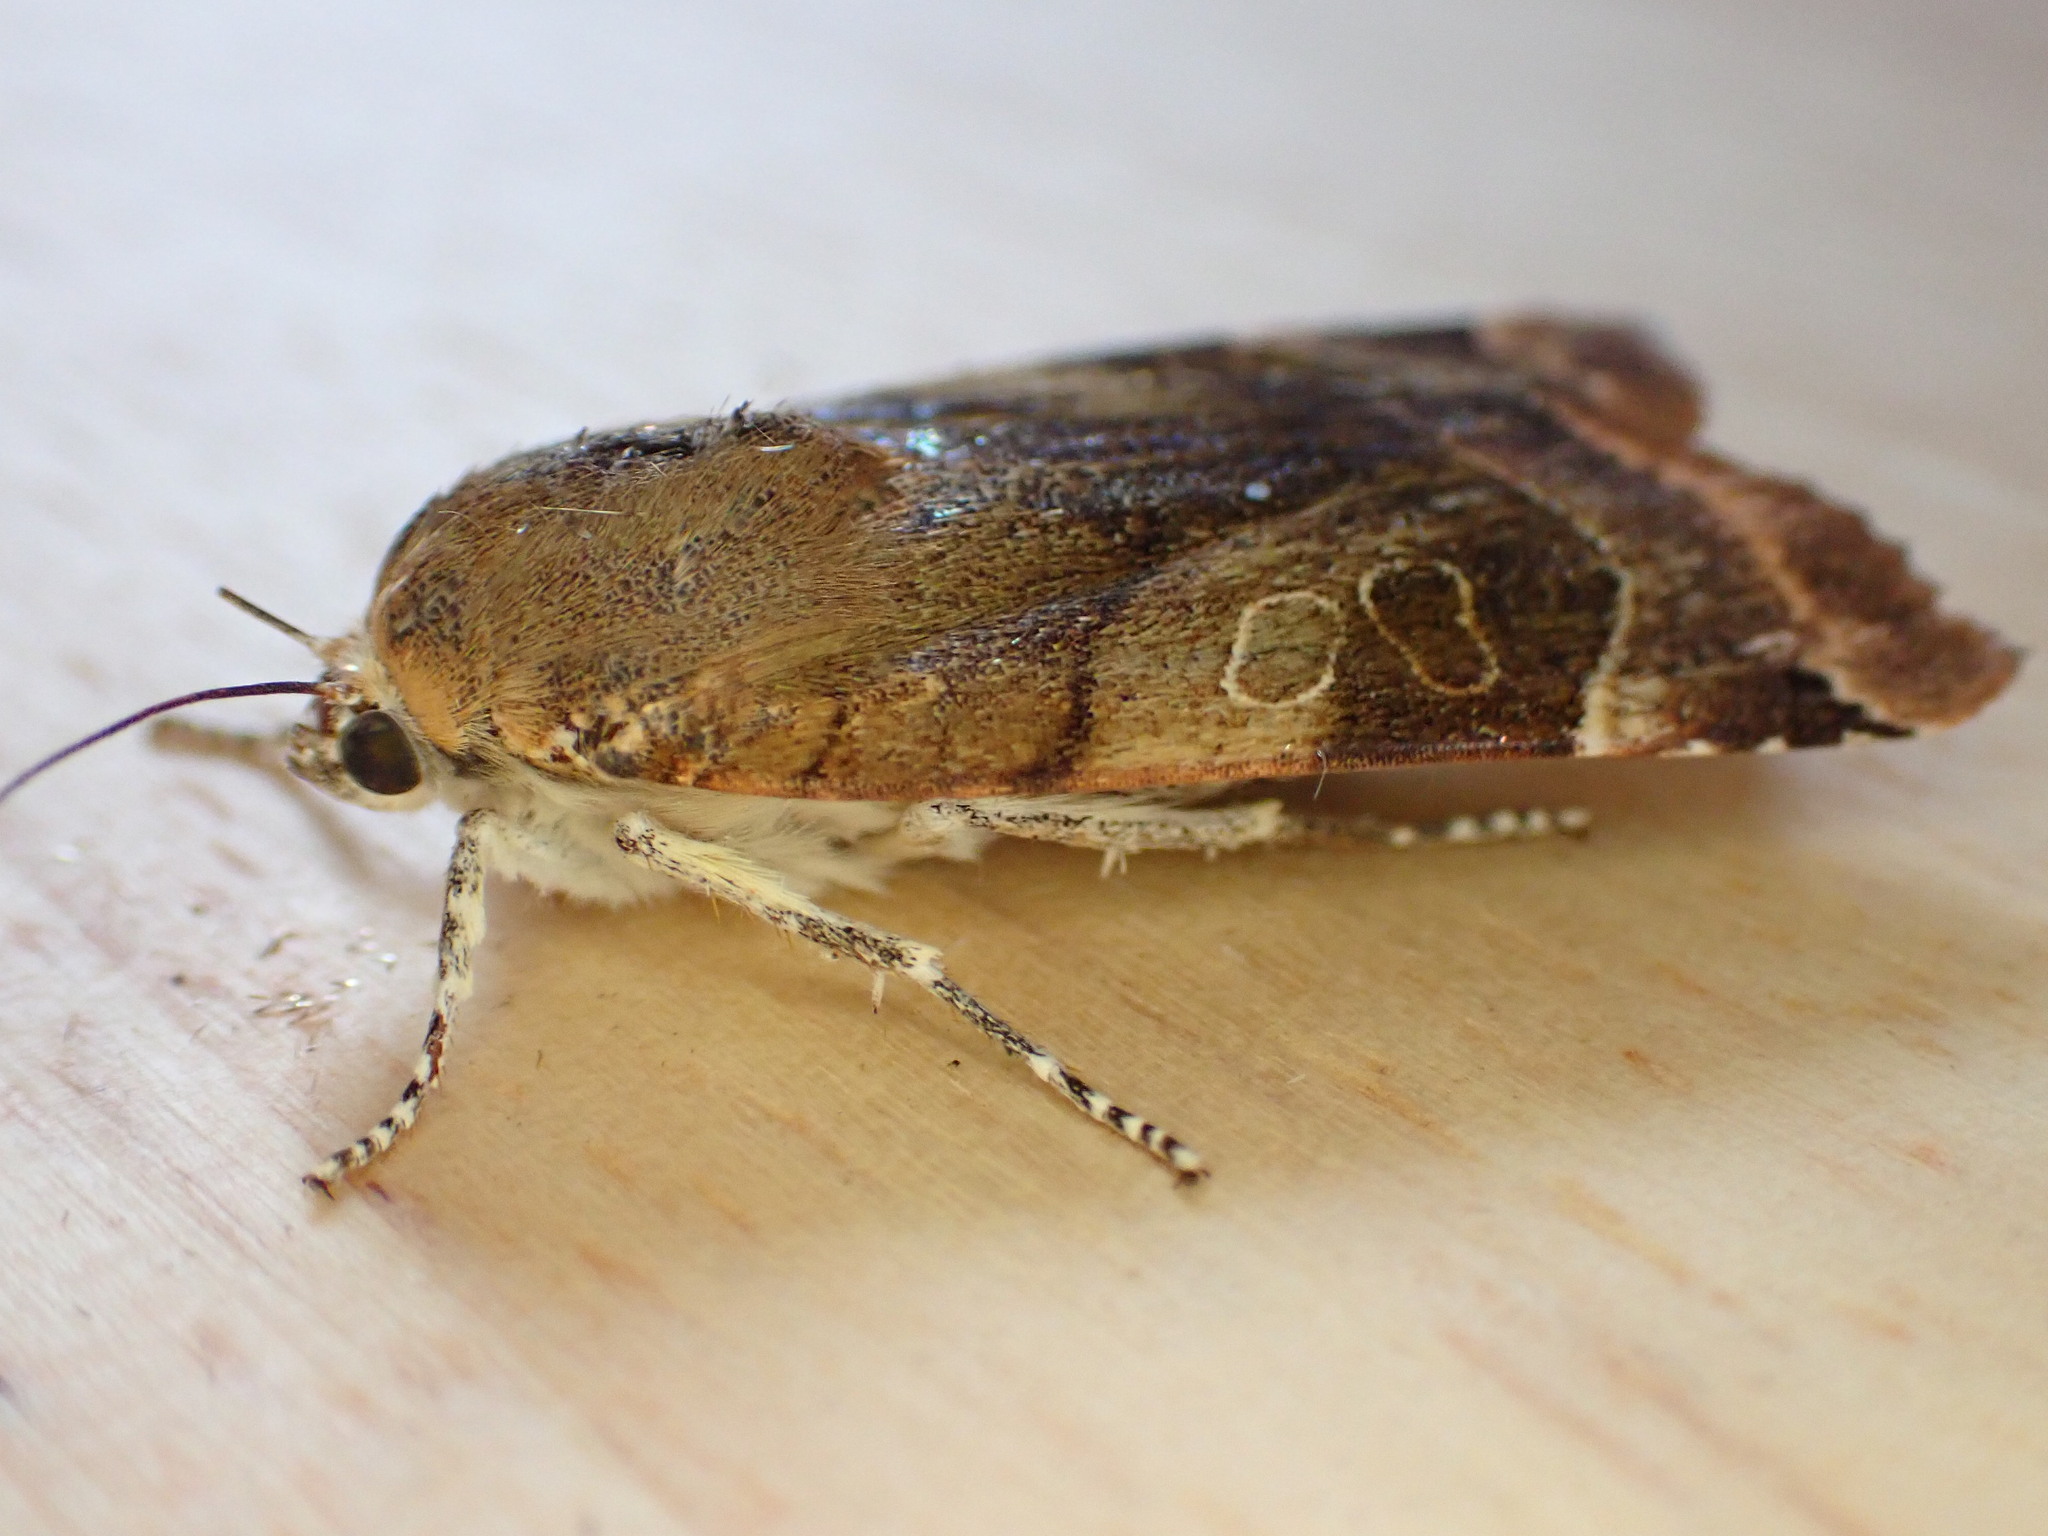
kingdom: Animalia
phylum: Arthropoda
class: Insecta
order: Lepidoptera
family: Noctuidae
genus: Noctua
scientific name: Noctua fimbriata
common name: Broad-bordered yellow underwing
